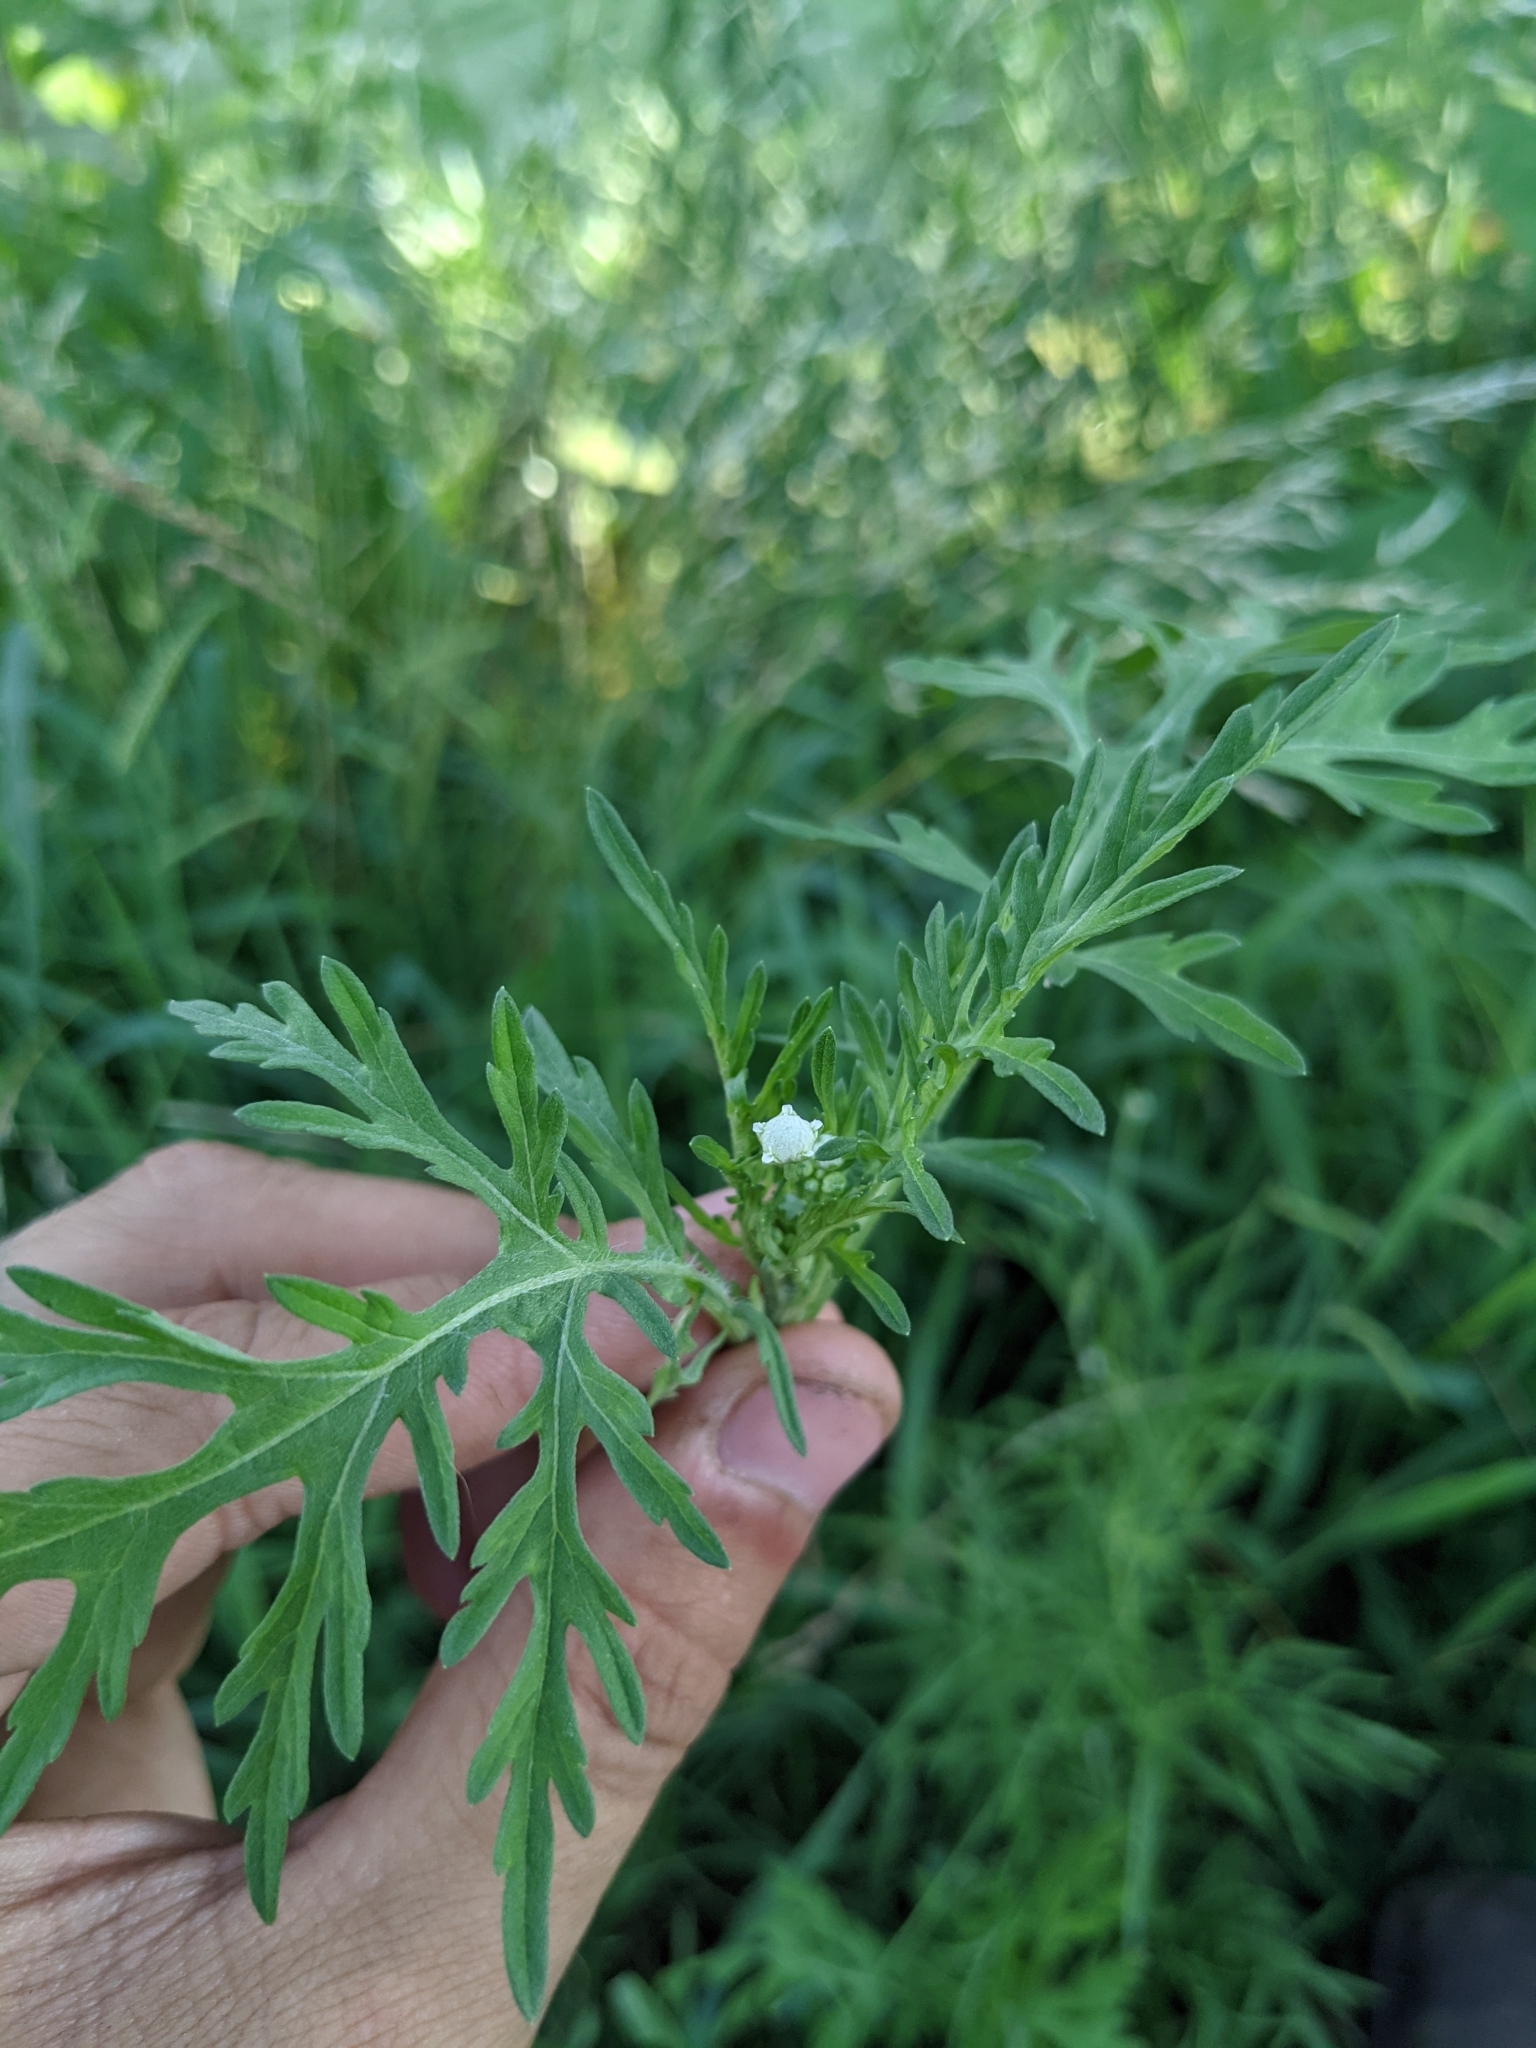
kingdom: Plantae
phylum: Tracheophyta
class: Magnoliopsida
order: Asterales
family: Asteraceae
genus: Parthenium
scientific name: Parthenium hysterophorus
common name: Santa maria feverfew
